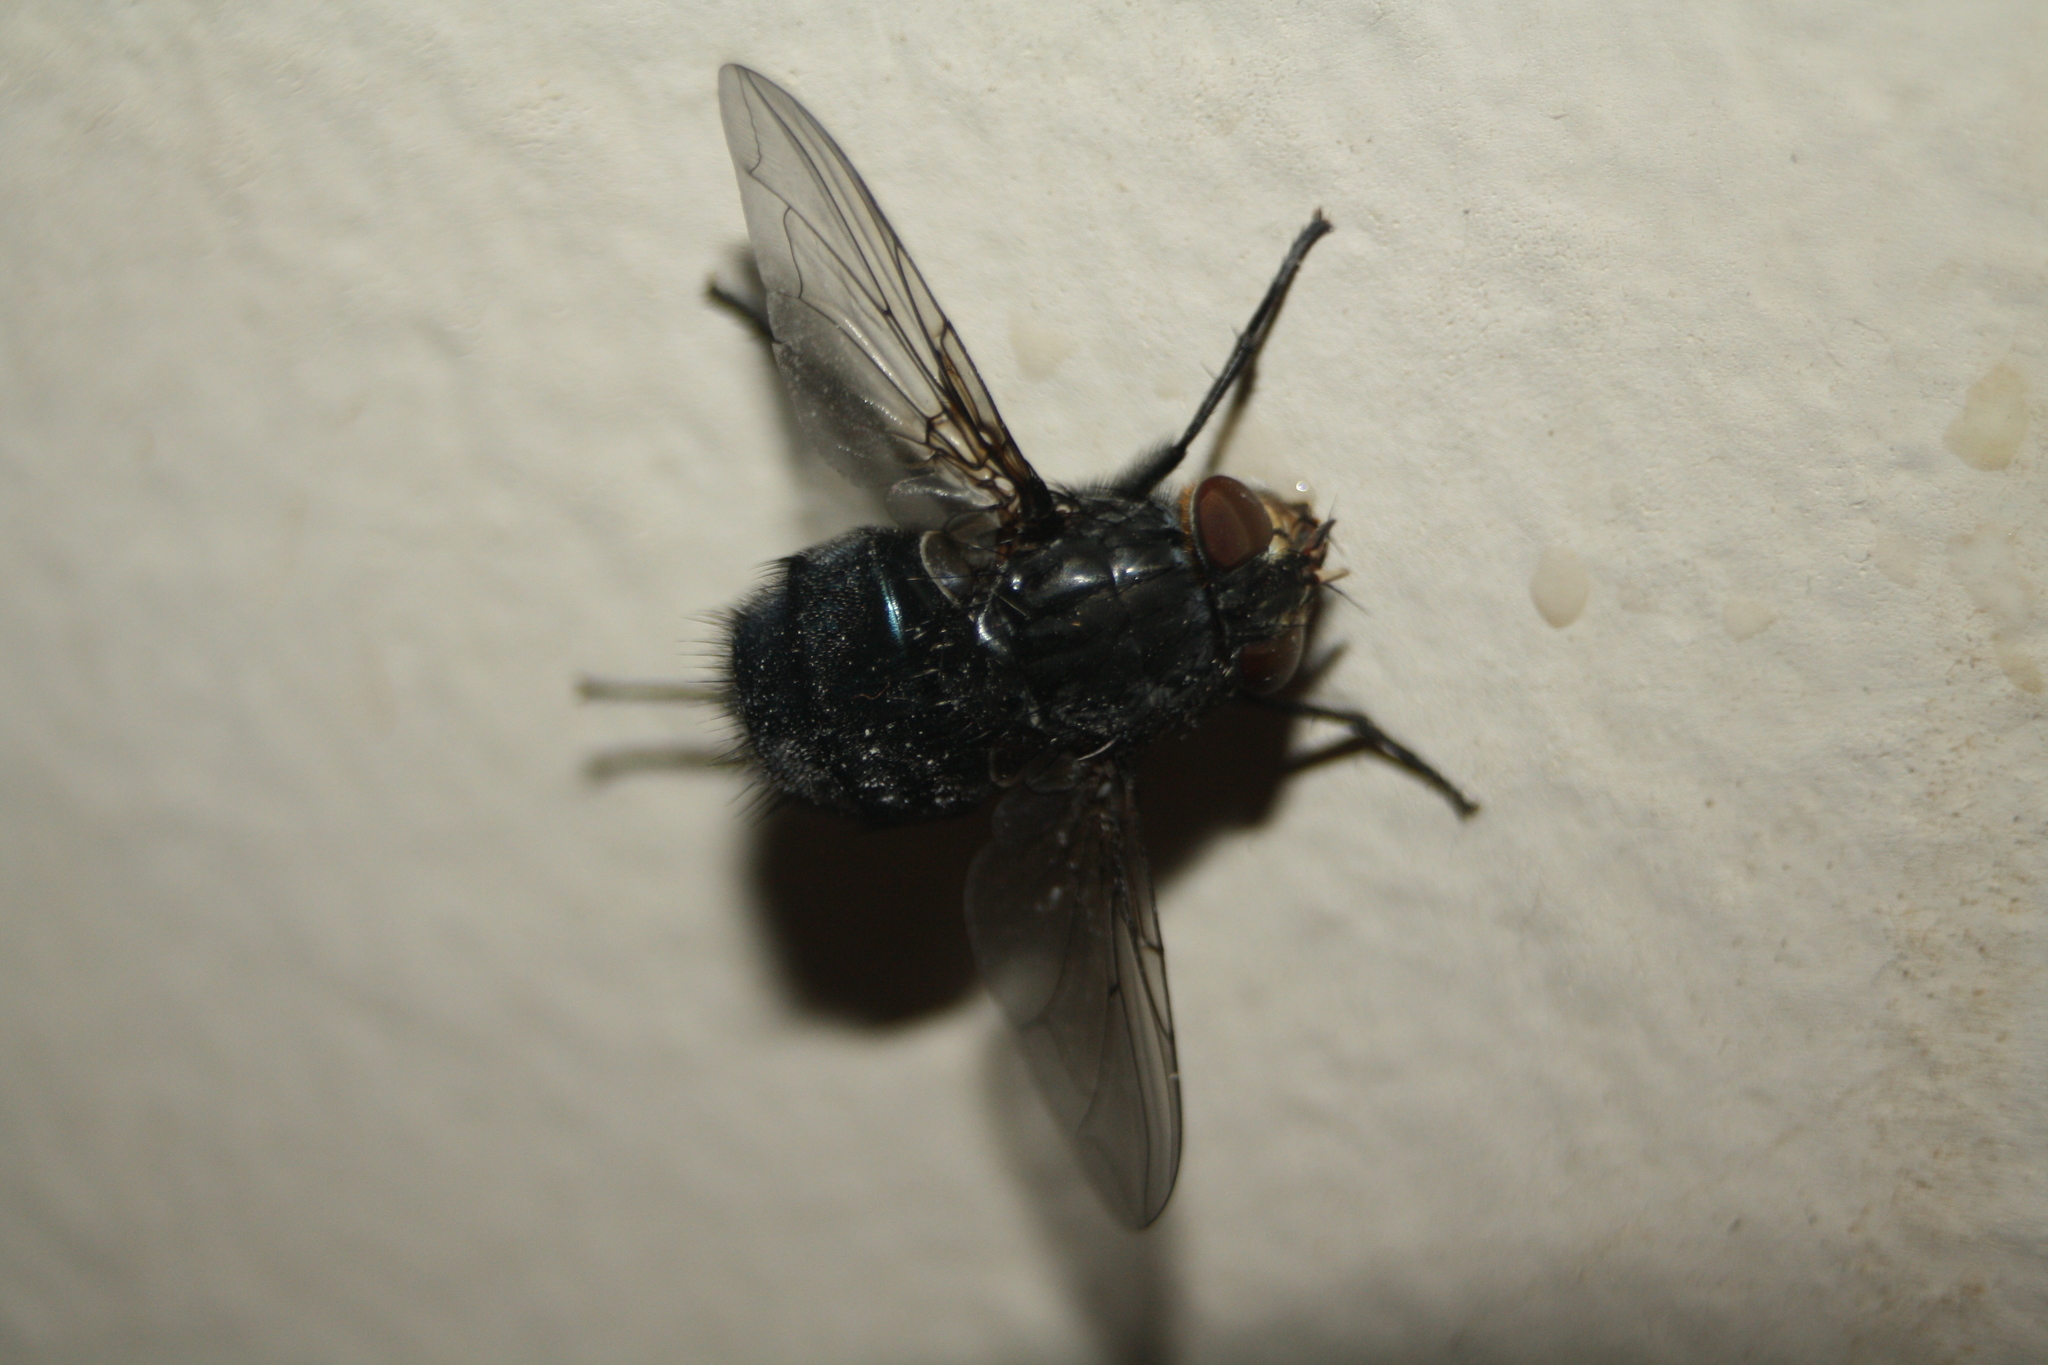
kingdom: Animalia
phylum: Arthropoda
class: Insecta
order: Diptera
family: Calliphoridae
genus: Calliphora
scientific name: Calliphora vomitoria
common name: Blue bottle fly
